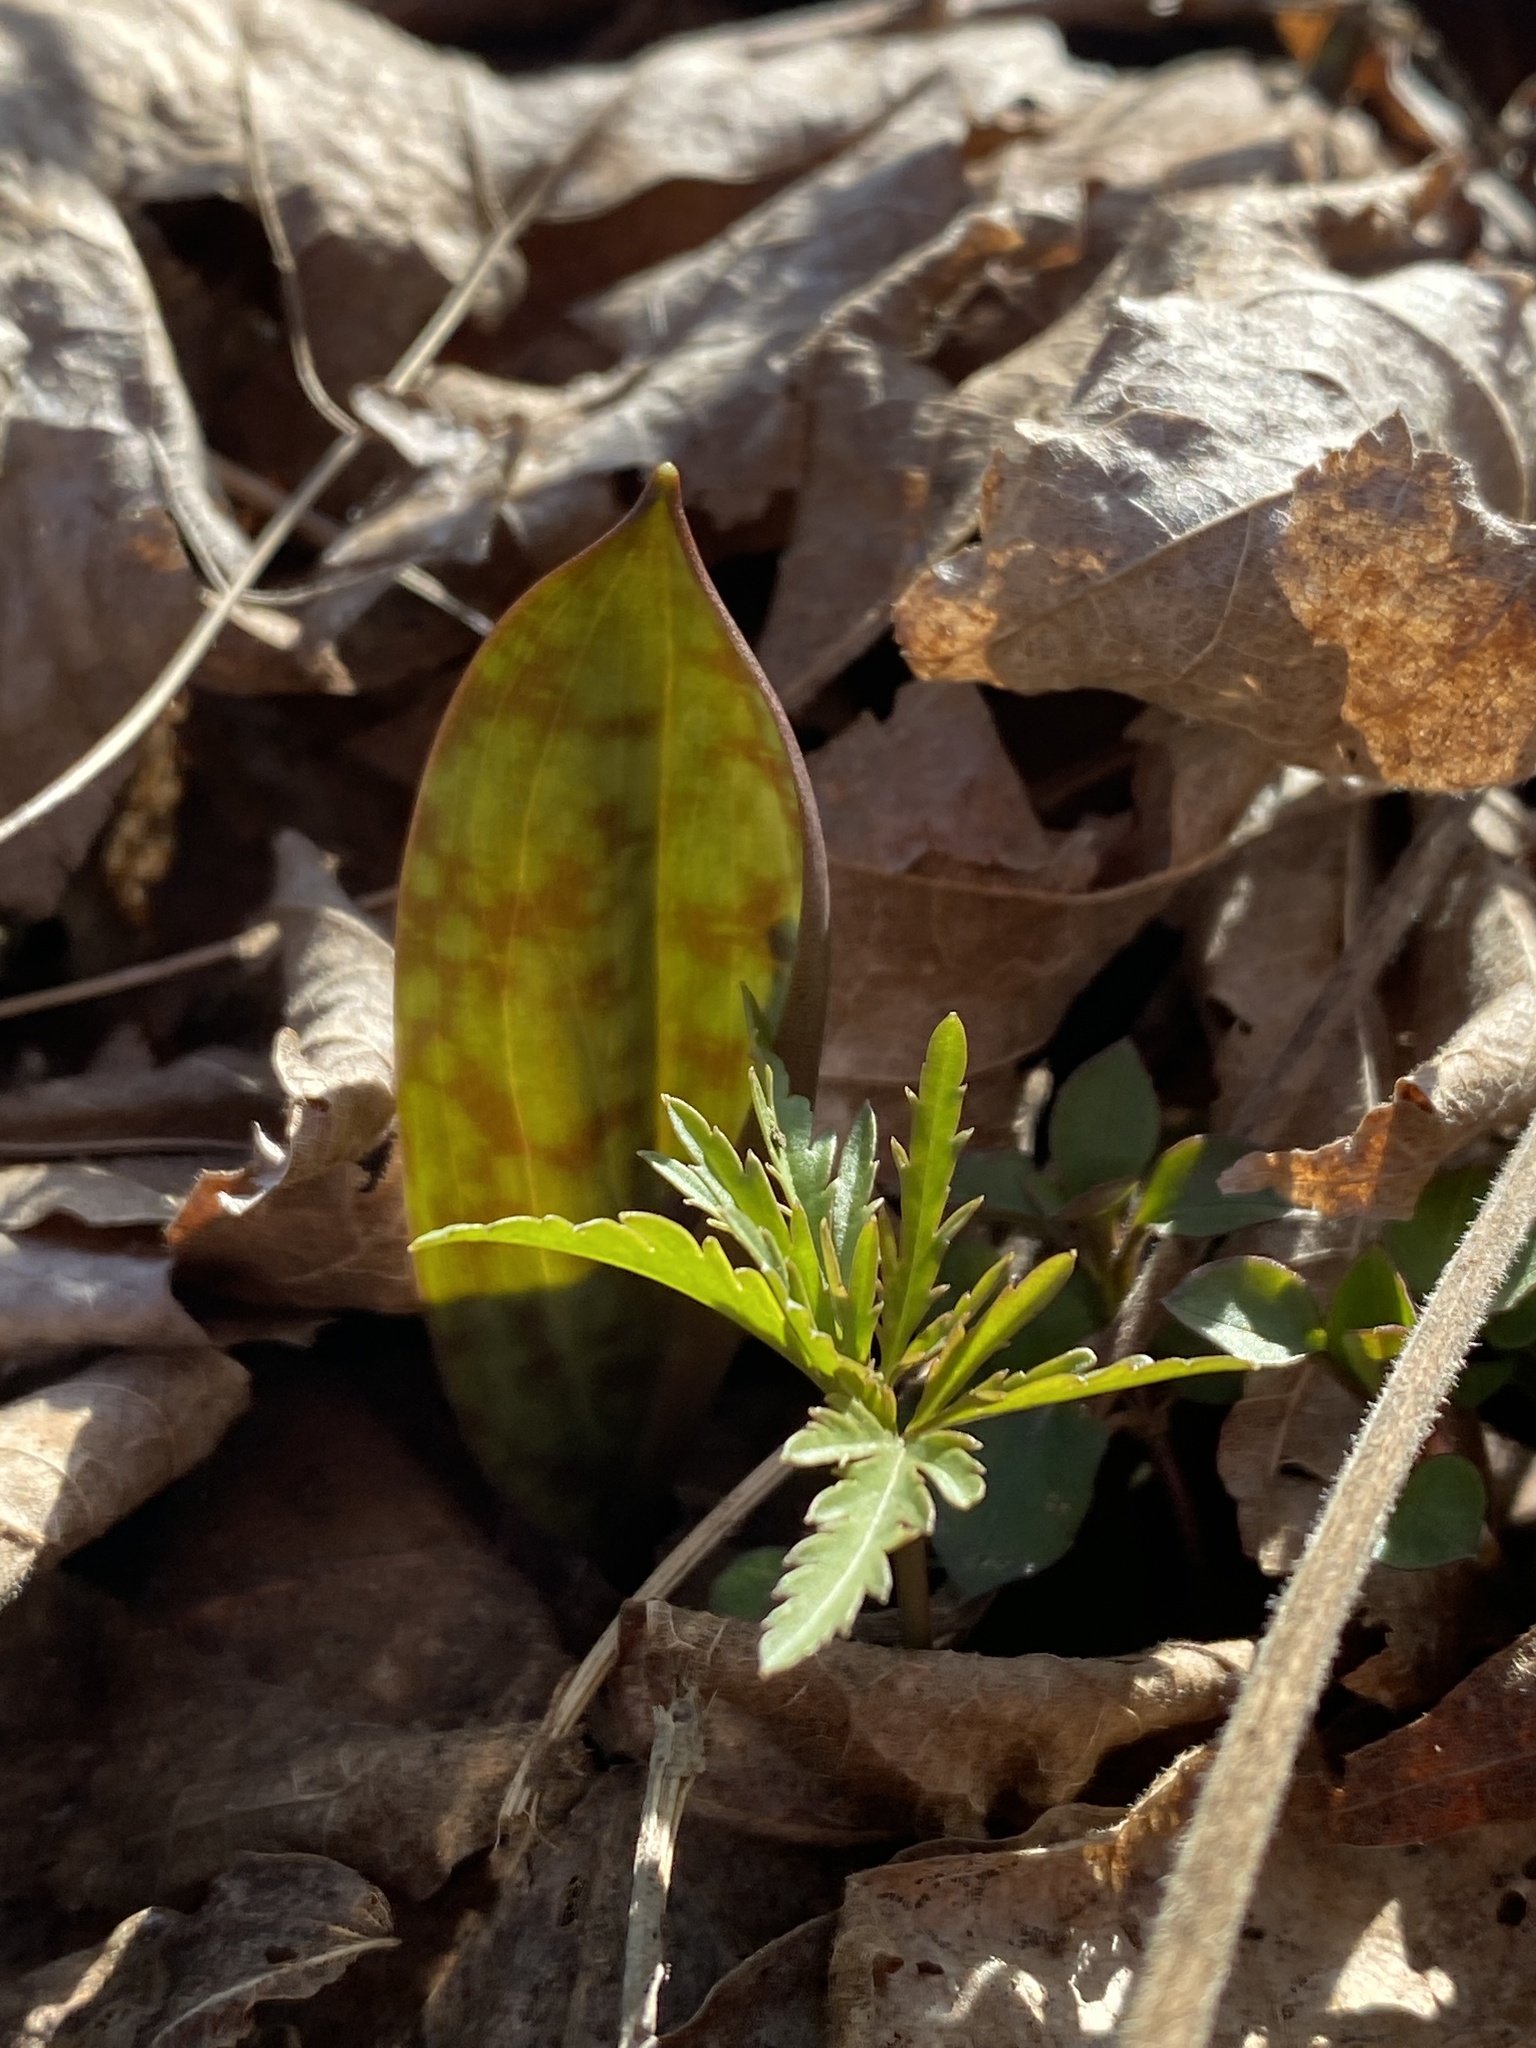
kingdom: Plantae
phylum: Tracheophyta
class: Liliopsida
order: Liliales
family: Liliaceae
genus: Erythronium
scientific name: Erythronium americanum
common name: Yellow adder's-tongue
